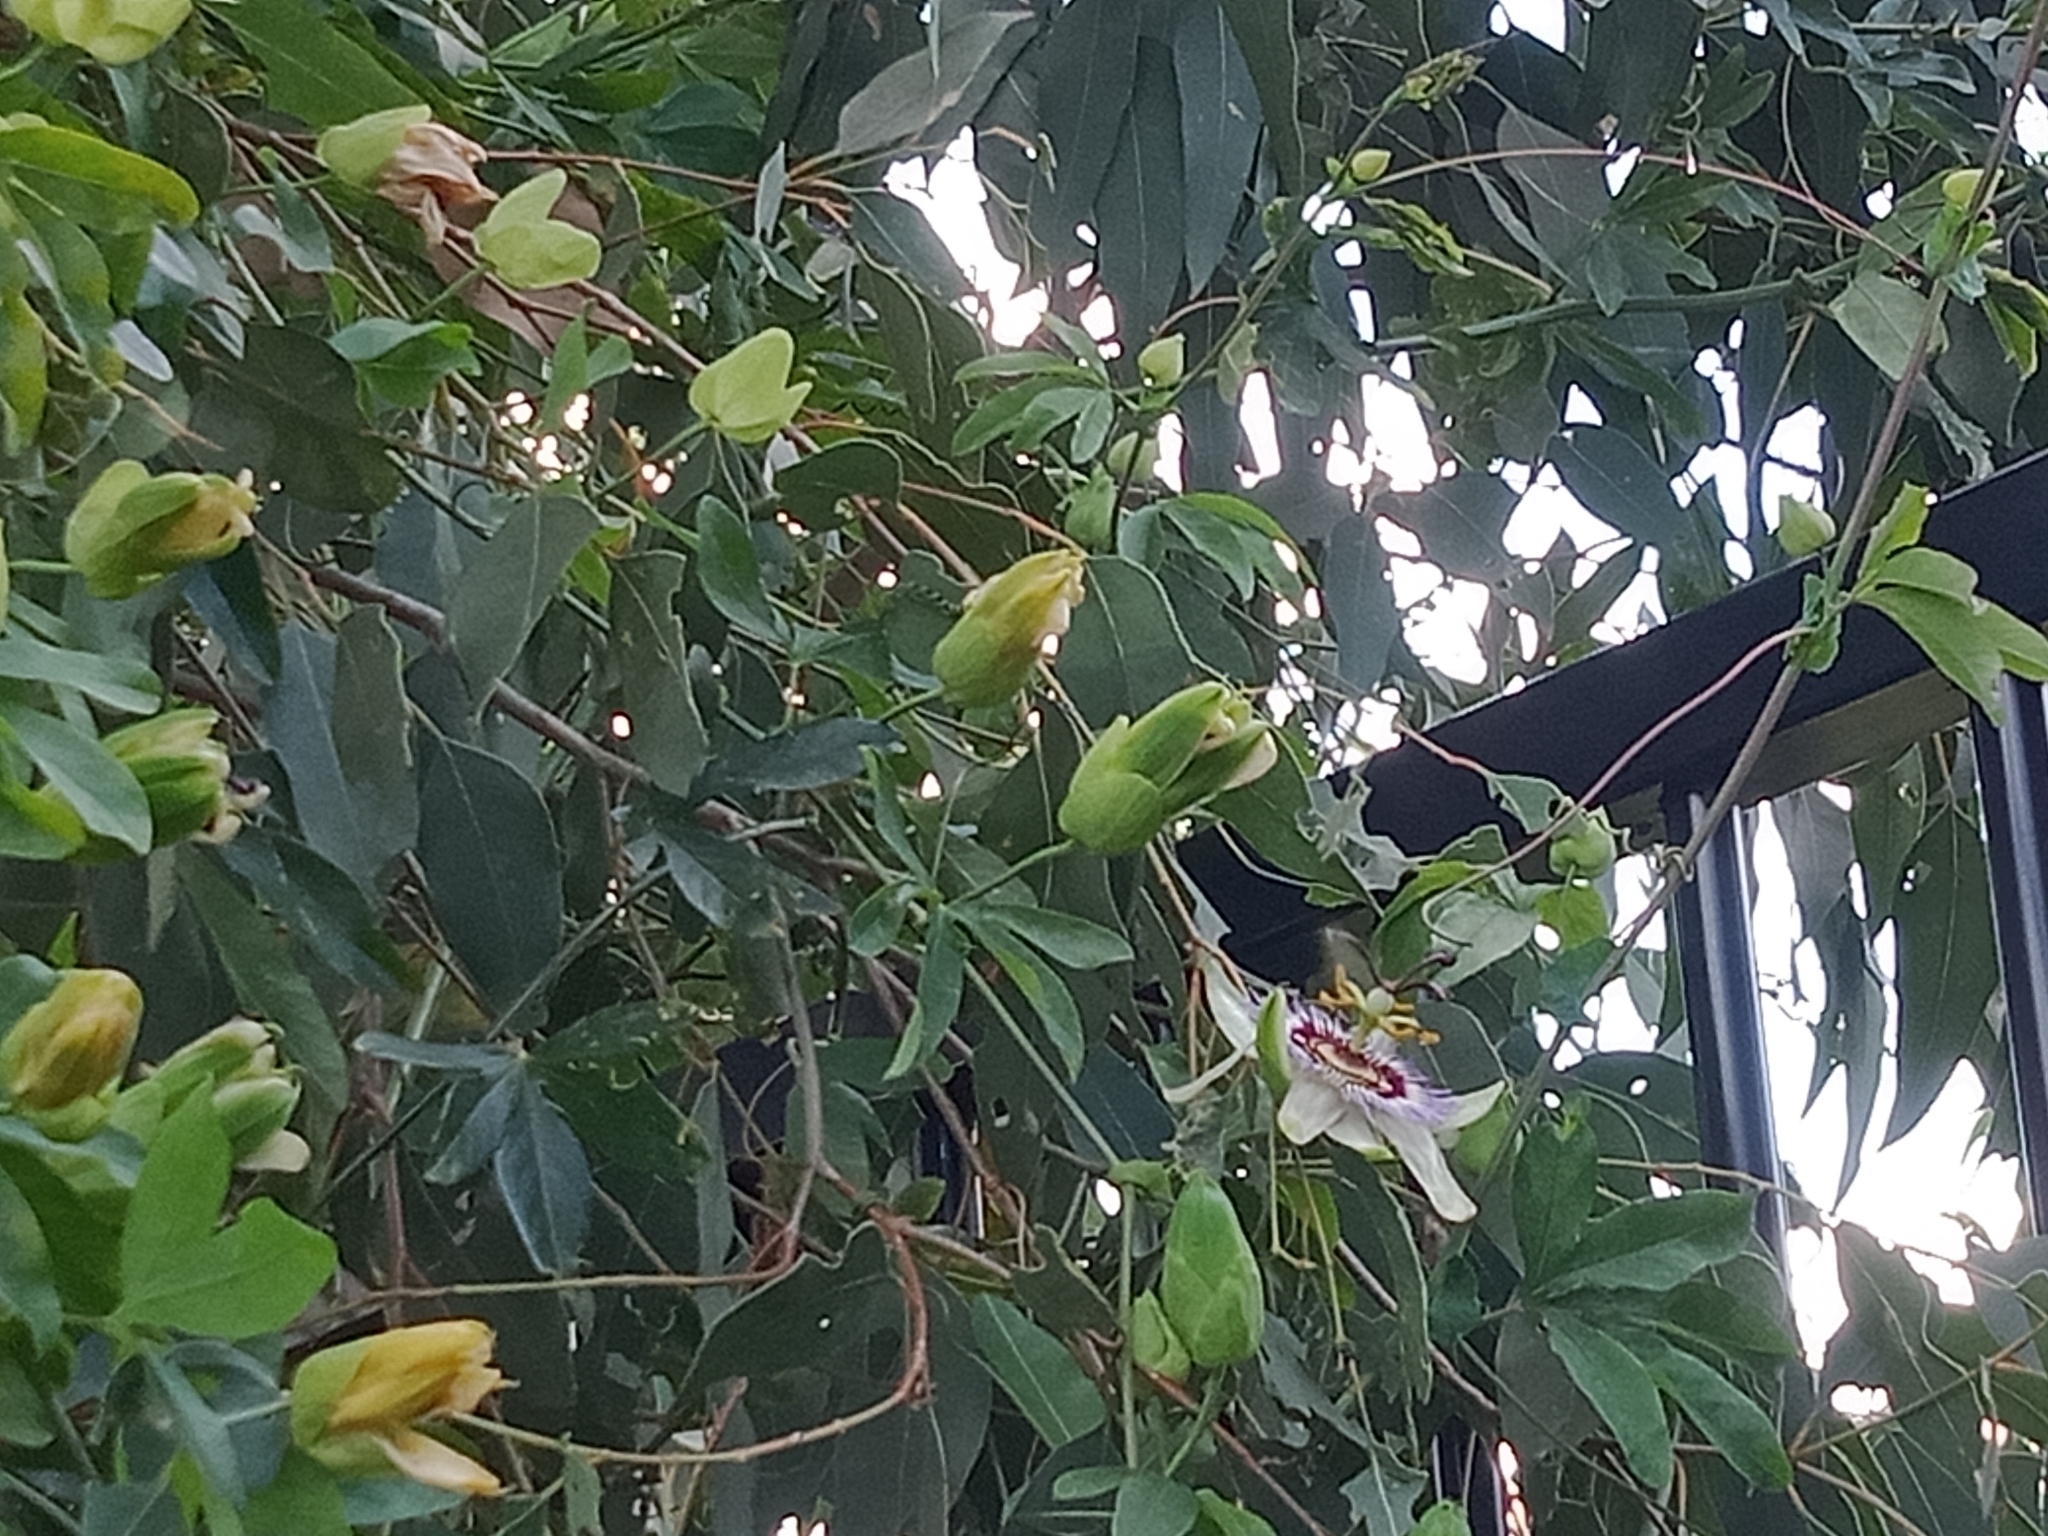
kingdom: Plantae
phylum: Tracheophyta
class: Magnoliopsida
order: Malpighiales
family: Passifloraceae
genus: Passiflora
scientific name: Passiflora caerulea
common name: Blue passionflower
